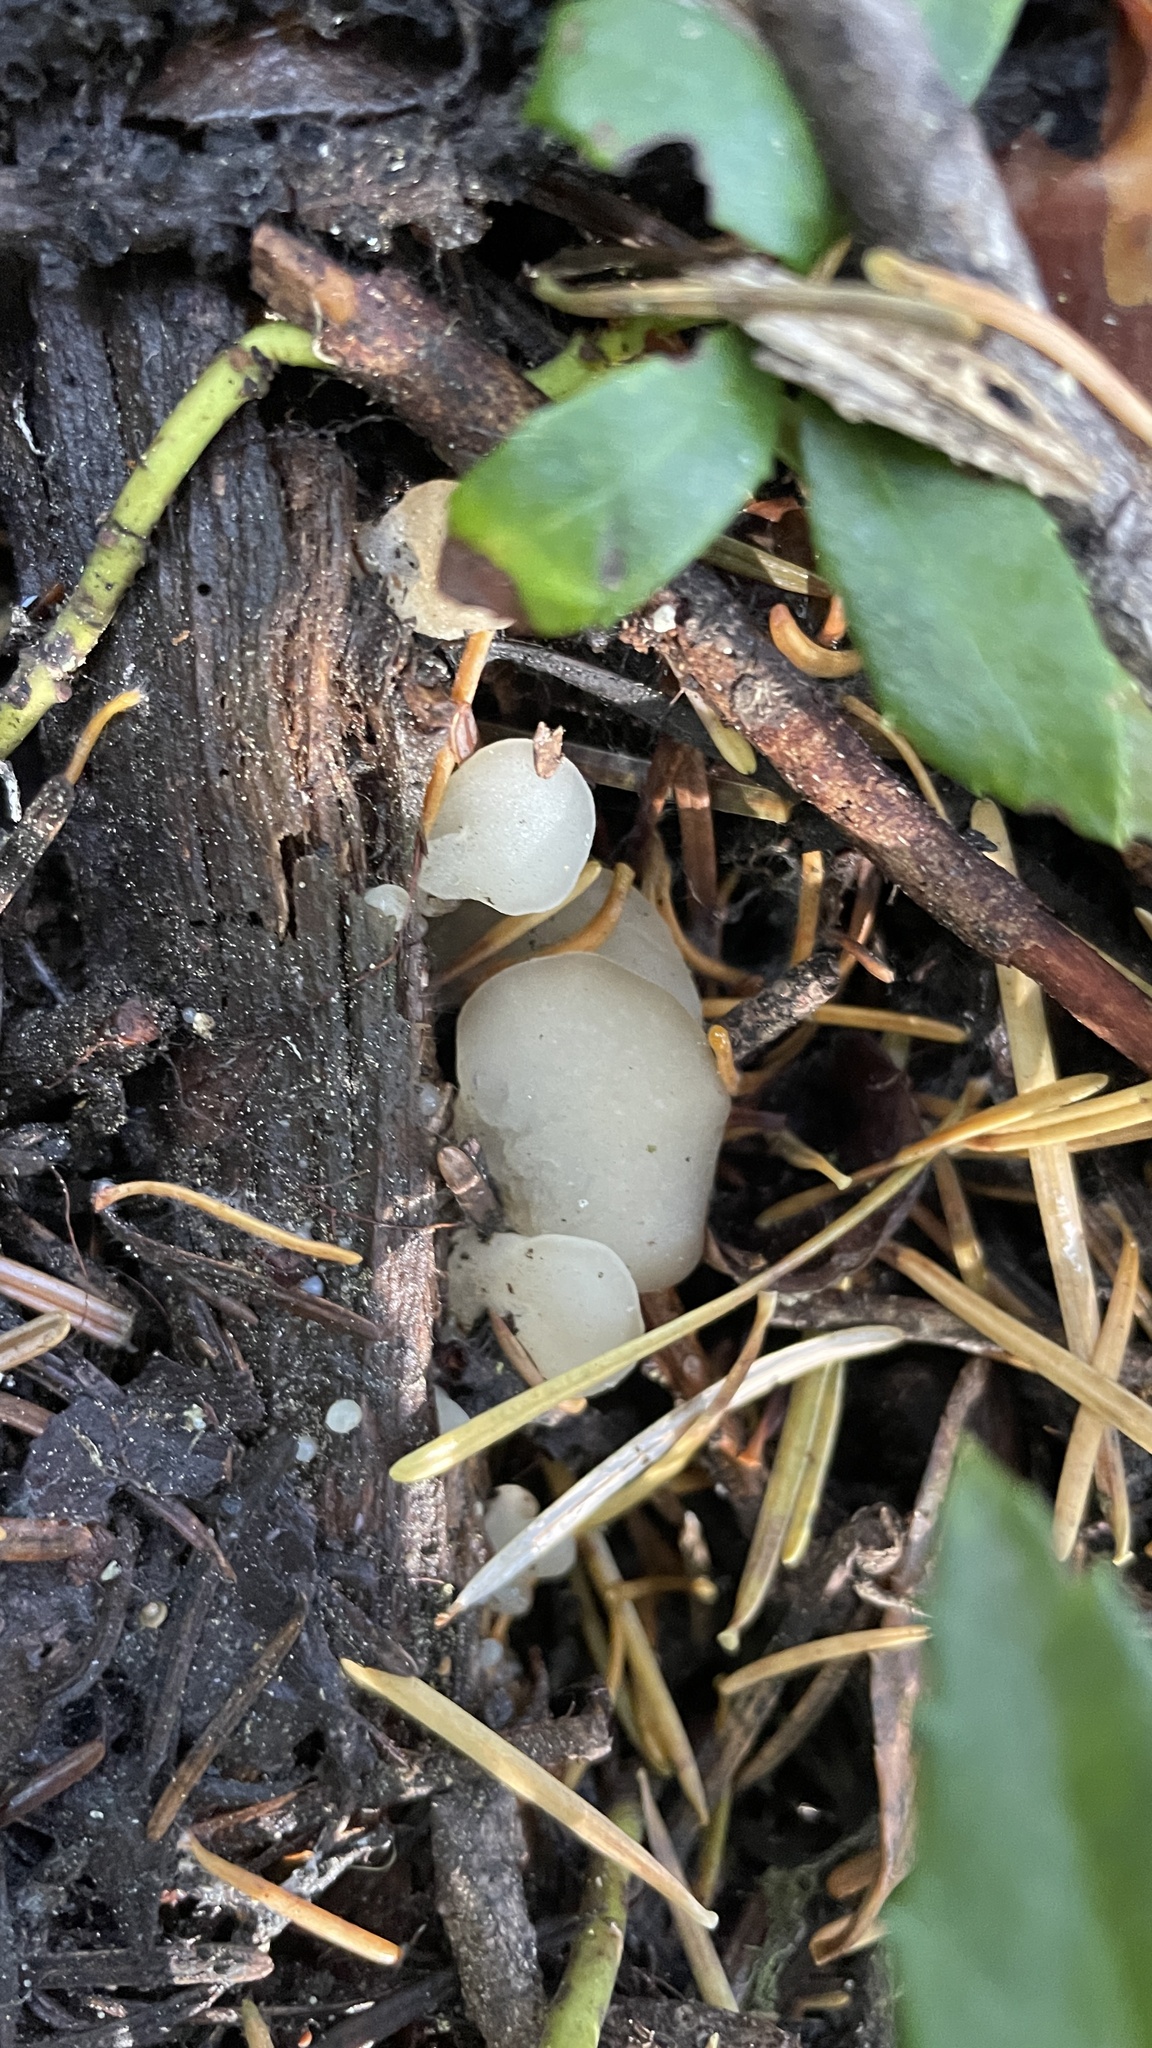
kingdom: Fungi
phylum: Basidiomycota
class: Agaricomycetes
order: Auriculariales
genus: Pseudohydnum
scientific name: Pseudohydnum gelatinosum
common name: Jelly tongue
